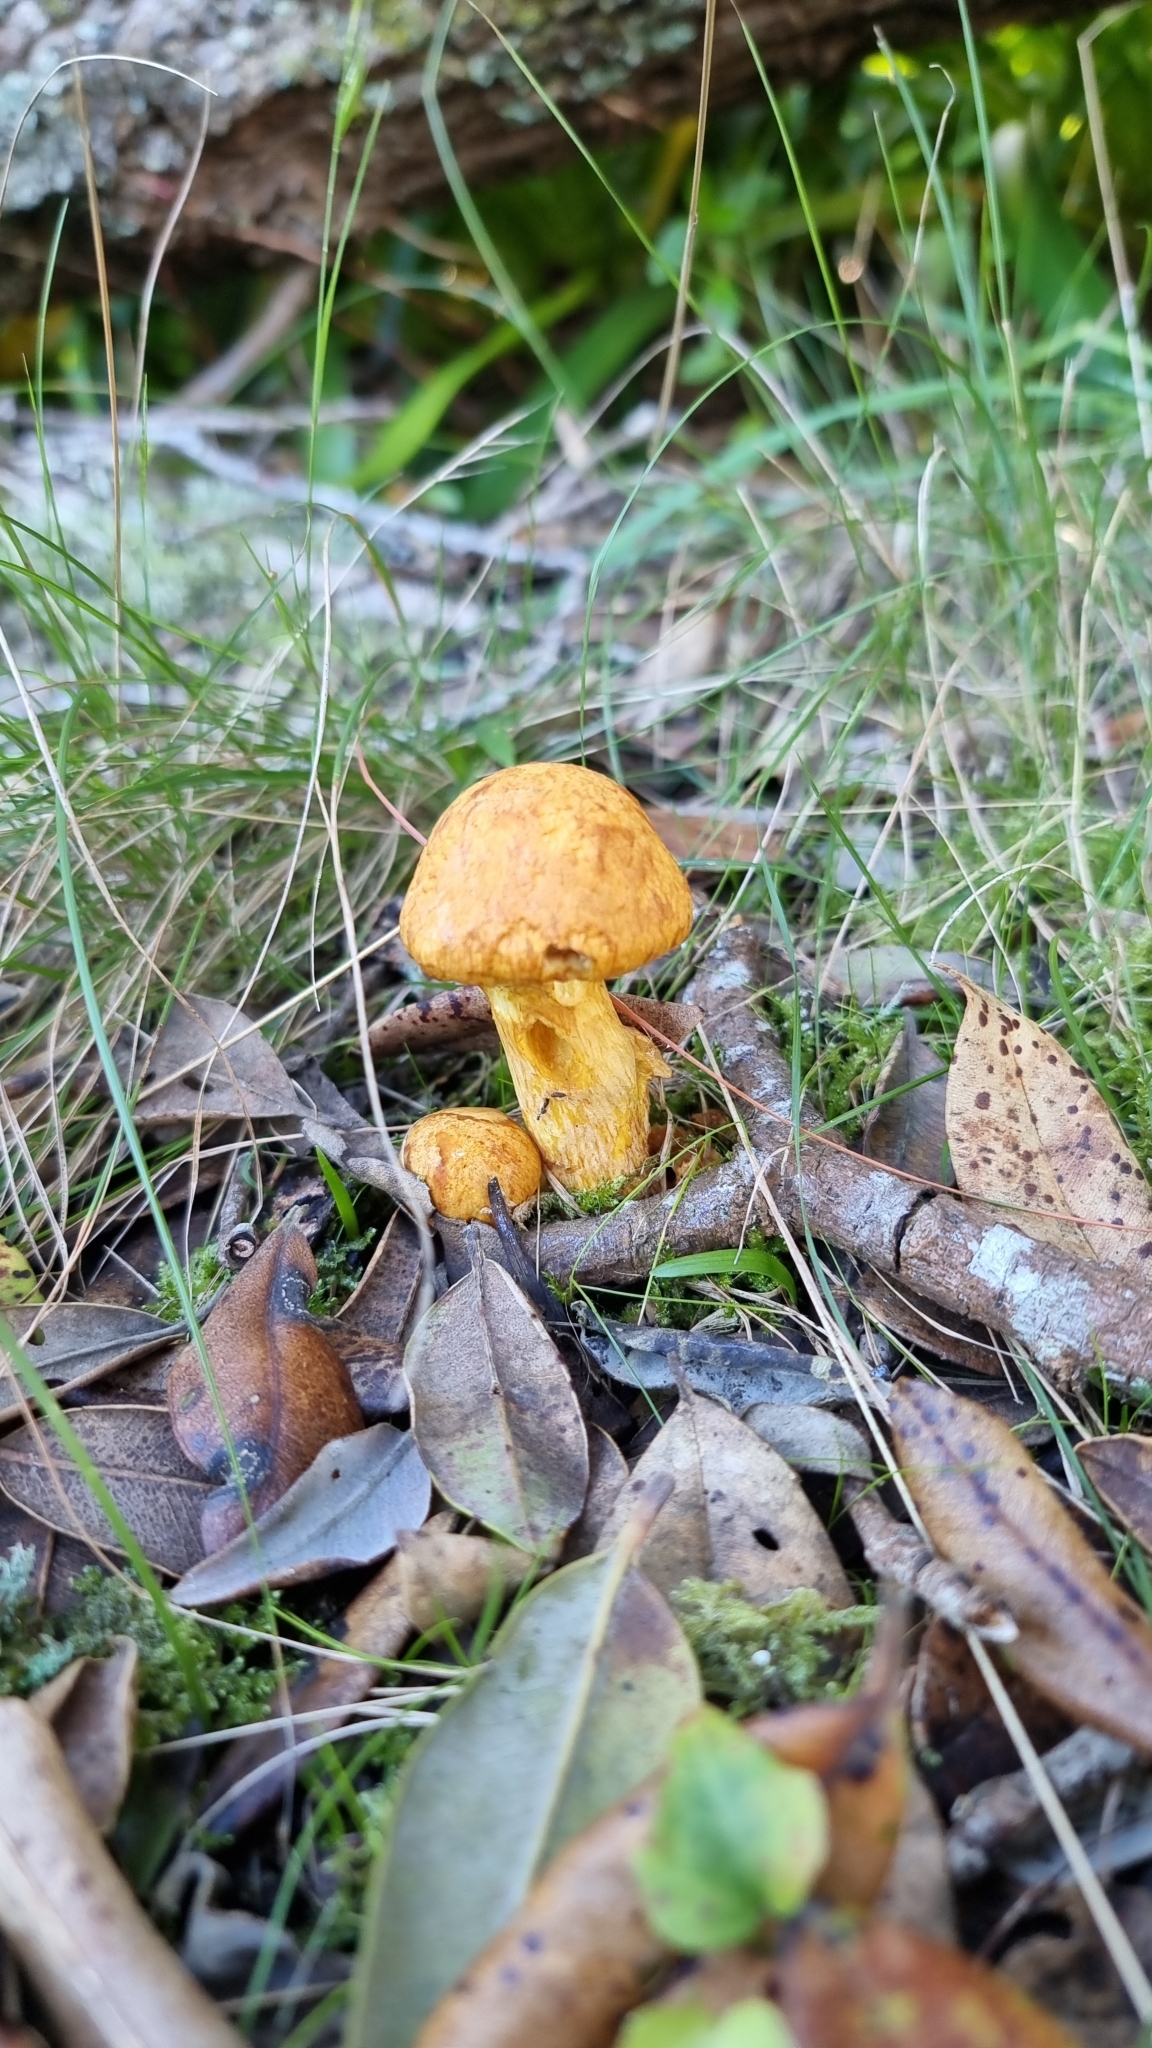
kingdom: Fungi
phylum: Basidiomycota
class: Agaricomycetes
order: Agaricales
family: Hymenogastraceae
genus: Gymnopilus
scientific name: Gymnopilus junonius
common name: Spectacular rustgill
